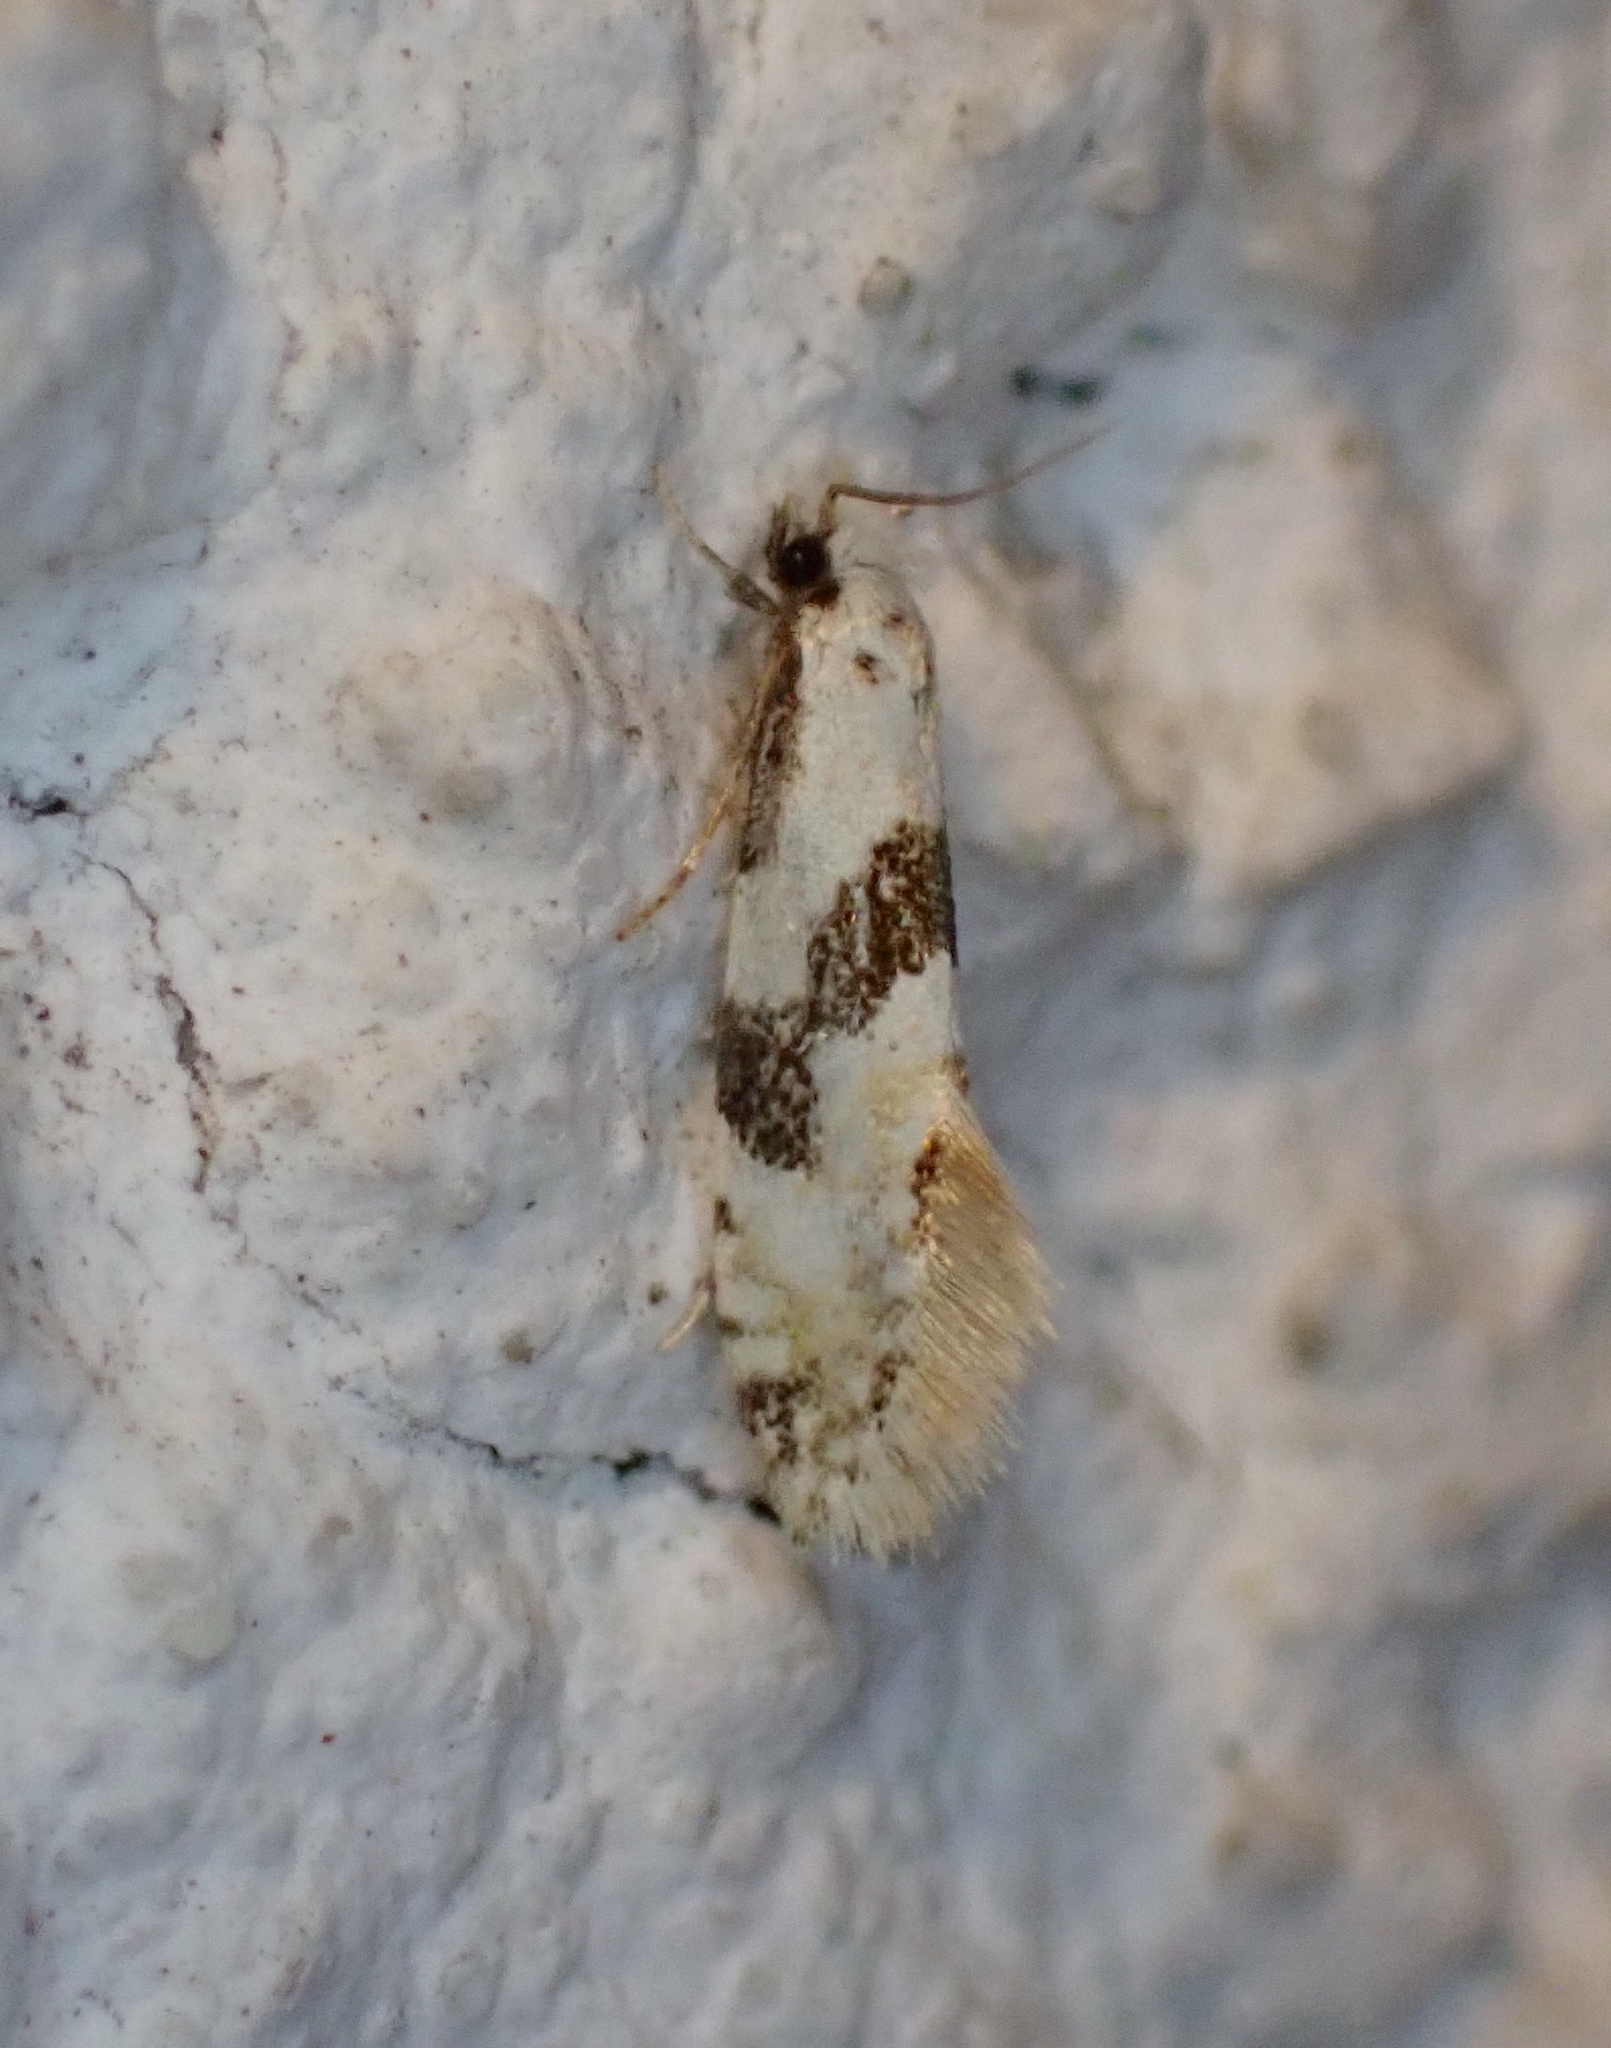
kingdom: Animalia
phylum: Arthropoda
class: Insecta
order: Lepidoptera
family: Tineidae
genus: Nemapogon
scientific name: Nemapogon clematella
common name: Barred white clothes
